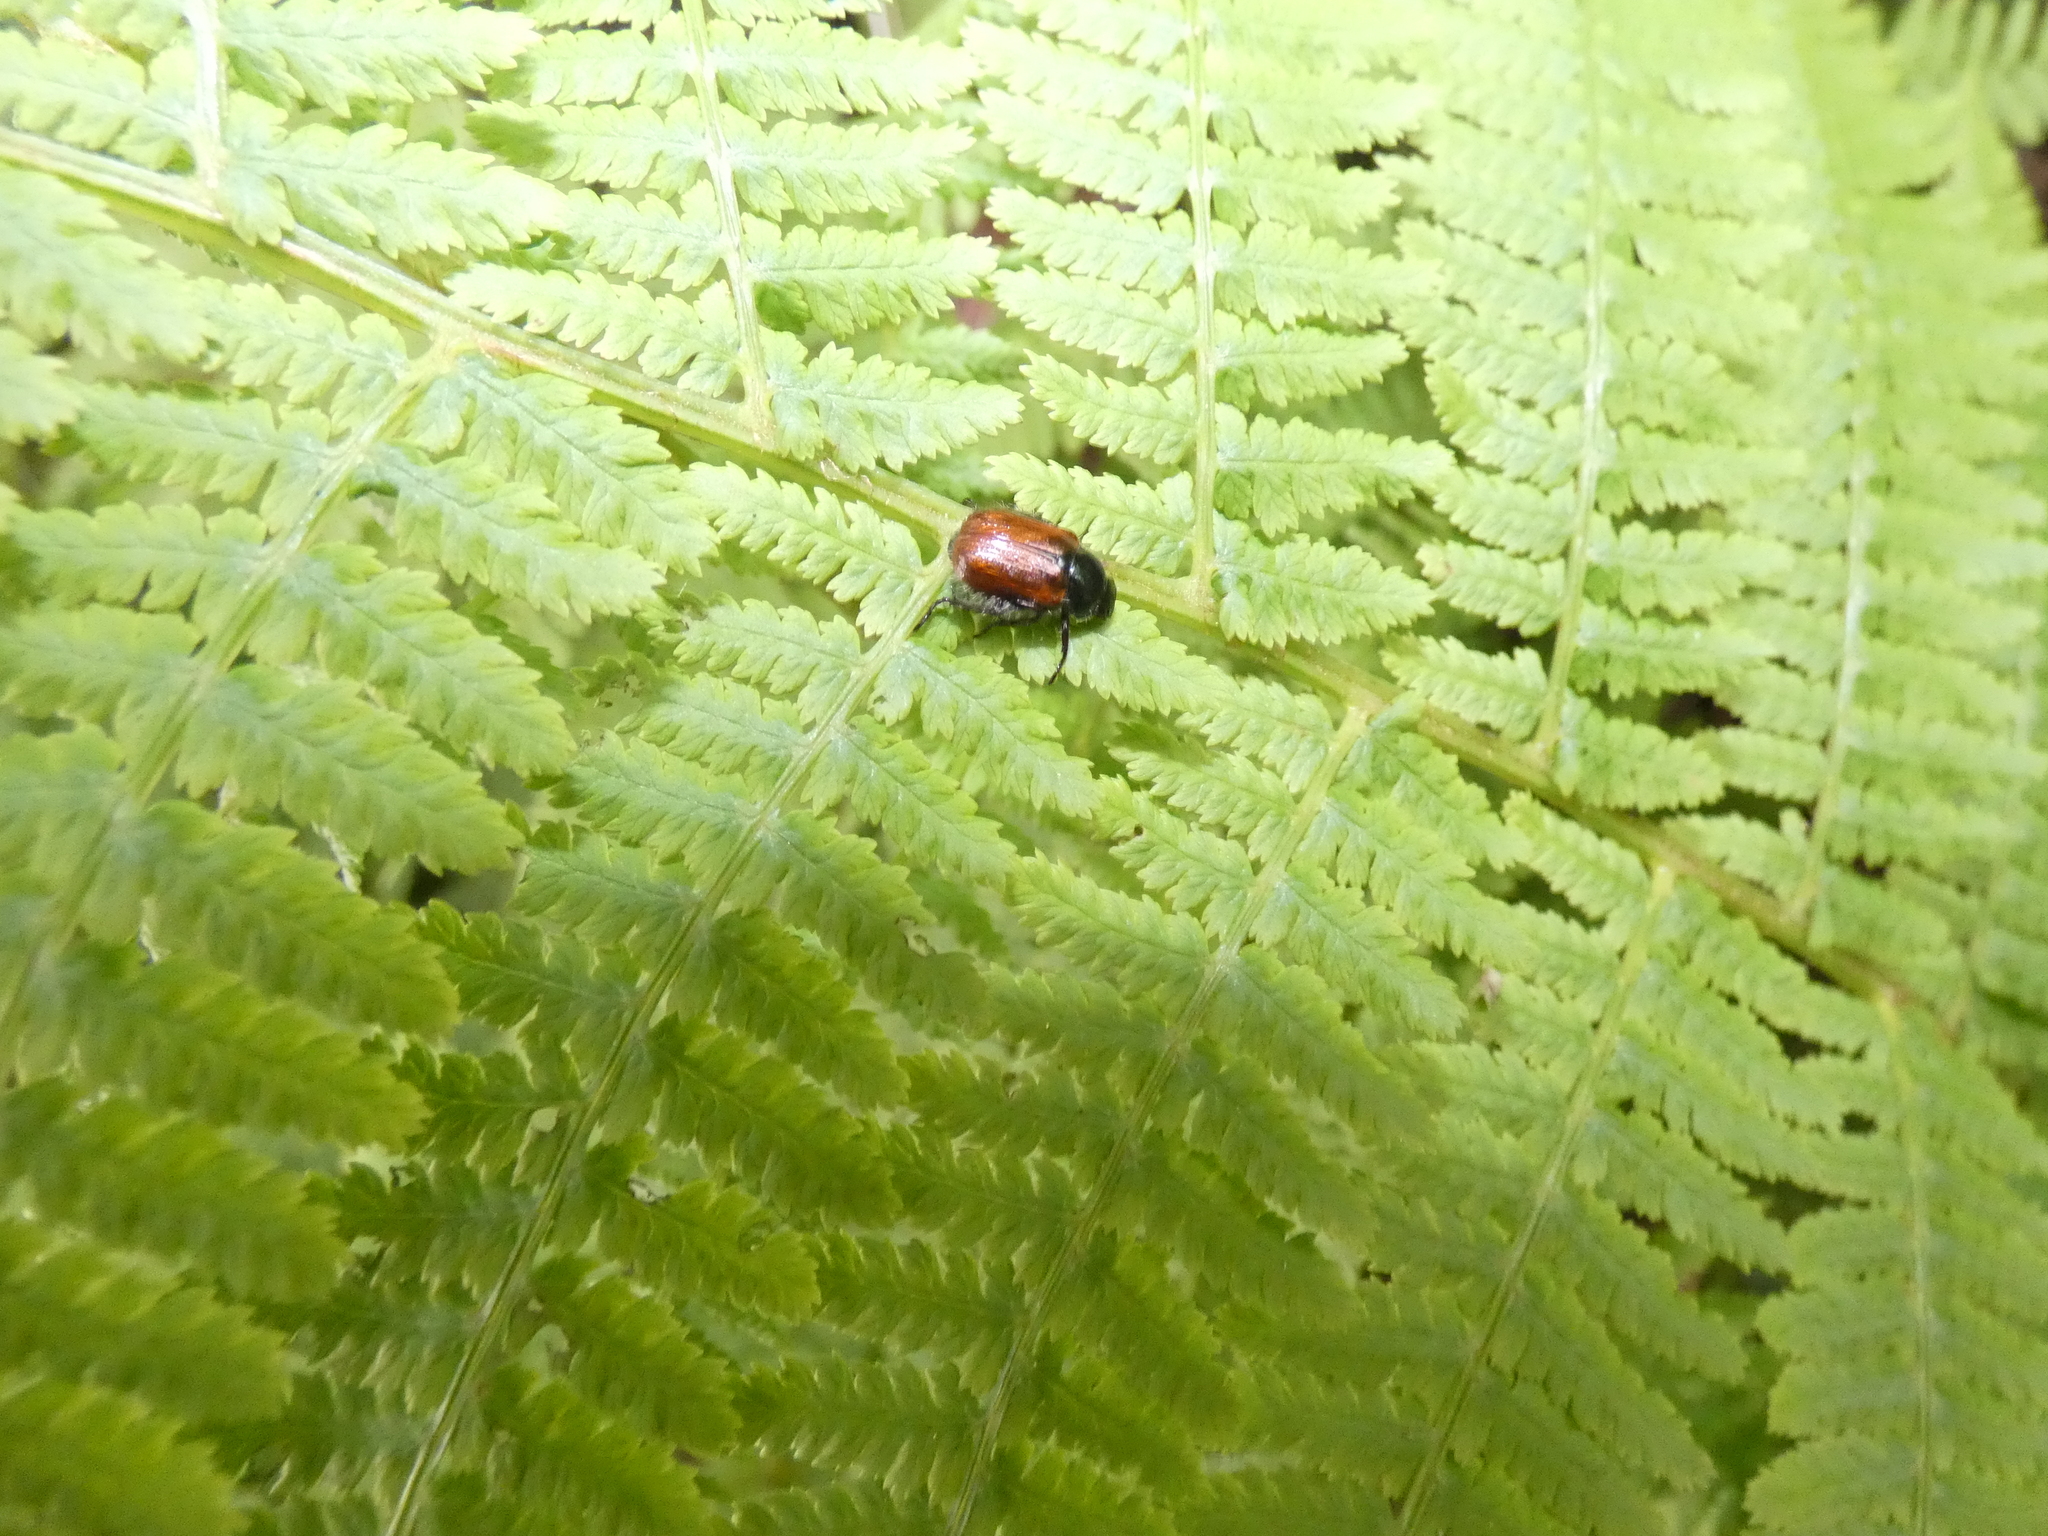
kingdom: Animalia
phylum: Arthropoda
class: Insecta
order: Coleoptera
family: Scarabaeidae
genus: Phyllopertha
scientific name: Phyllopertha horticola
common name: Garden chafer
